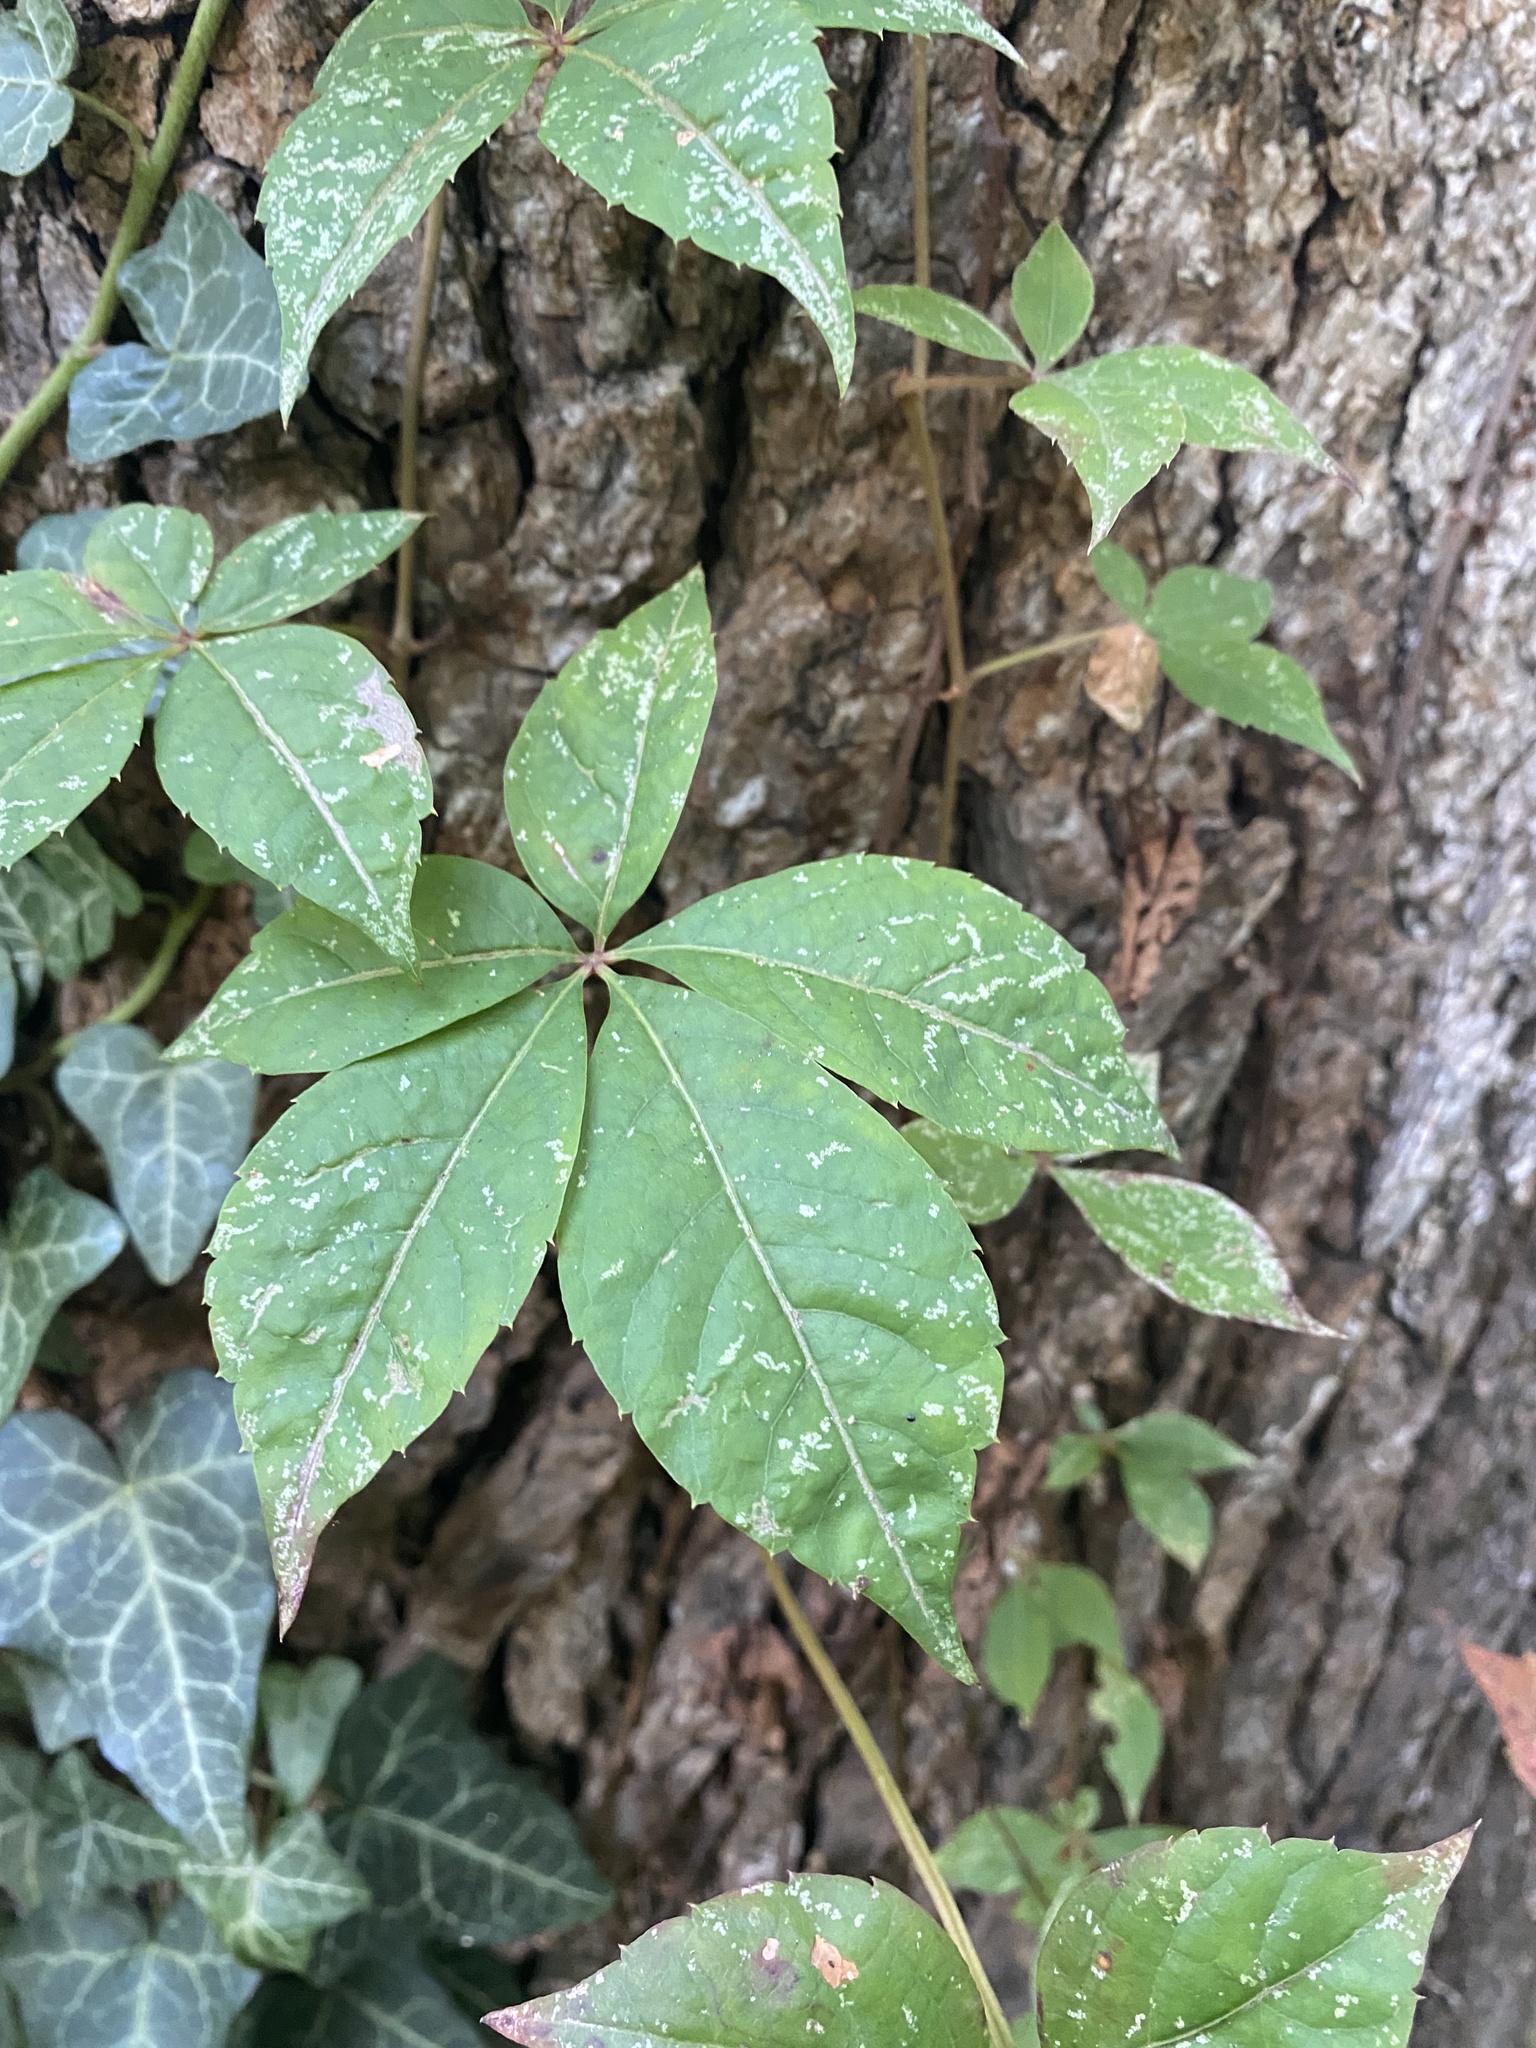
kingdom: Plantae
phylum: Tracheophyta
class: Magnoliopsida
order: Vitales
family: Vitaceae
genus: Parthenocissus
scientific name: Parthenocissus quinquefolia
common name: Virginia-creeper
